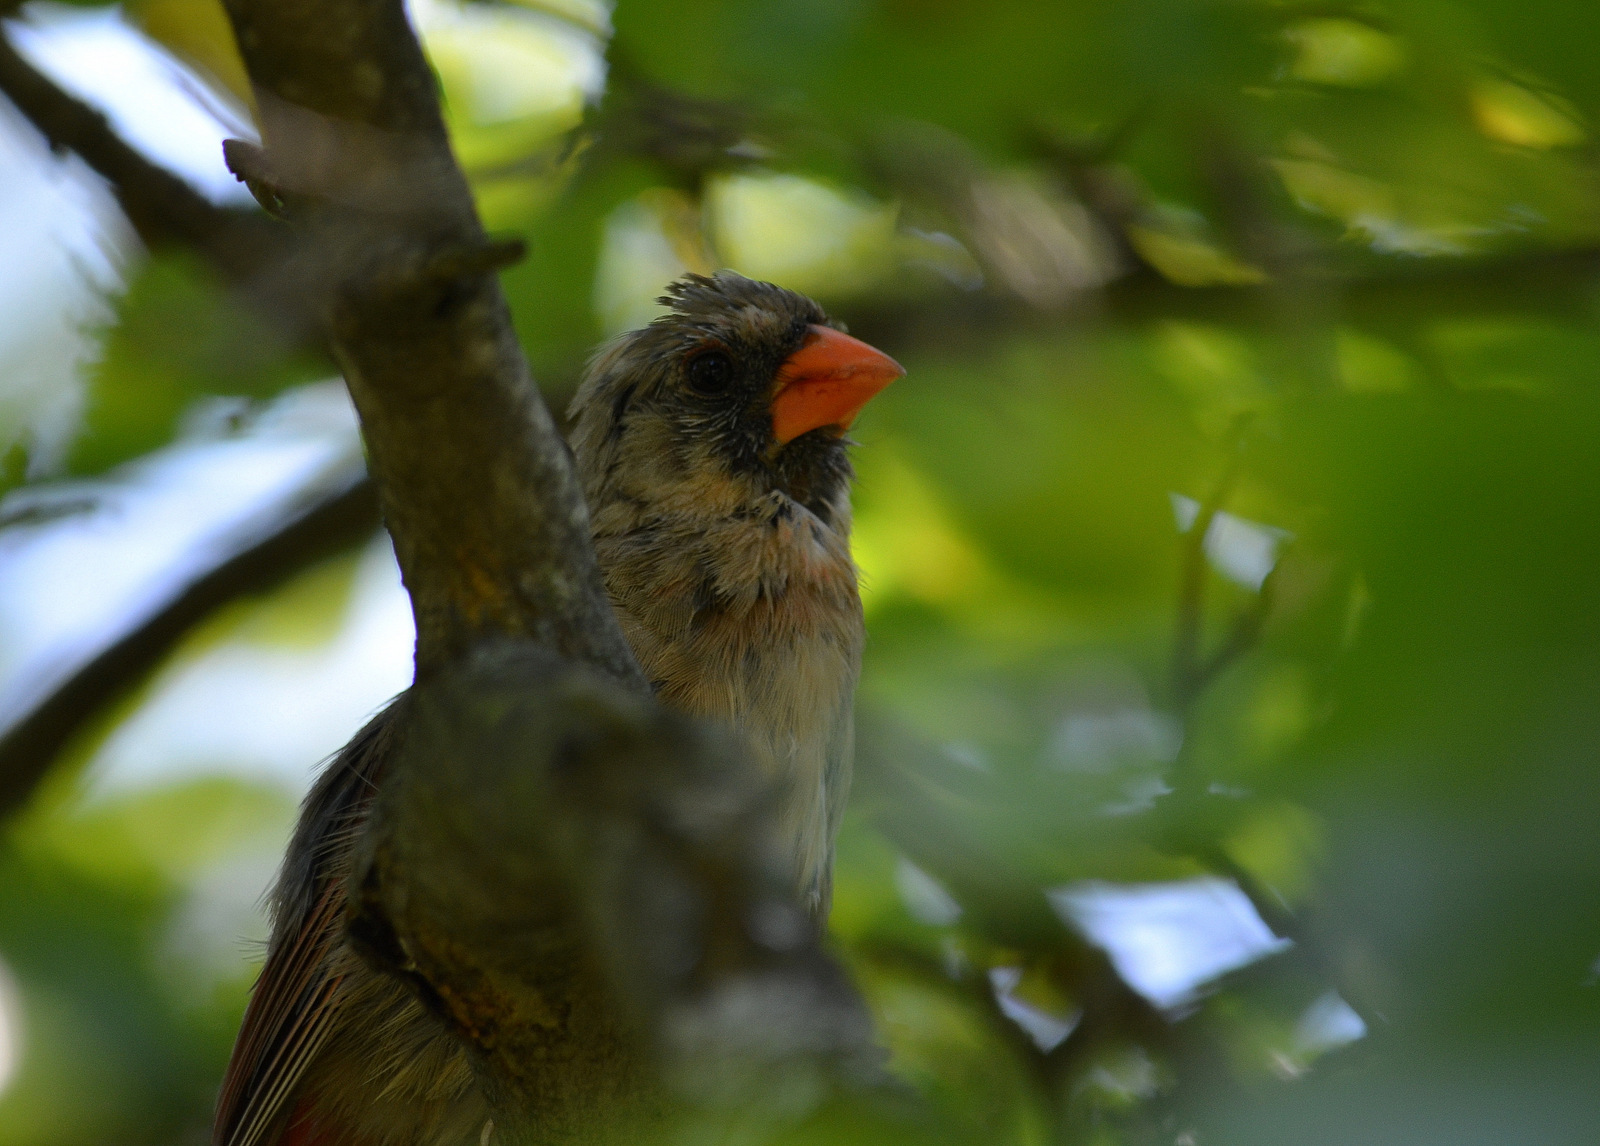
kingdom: Animalia
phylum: Chordata
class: Aves
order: Passeriformes
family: Cardinalidae
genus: Cardinalis
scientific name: Cardinalis cardinalis
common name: Northern cardinal
